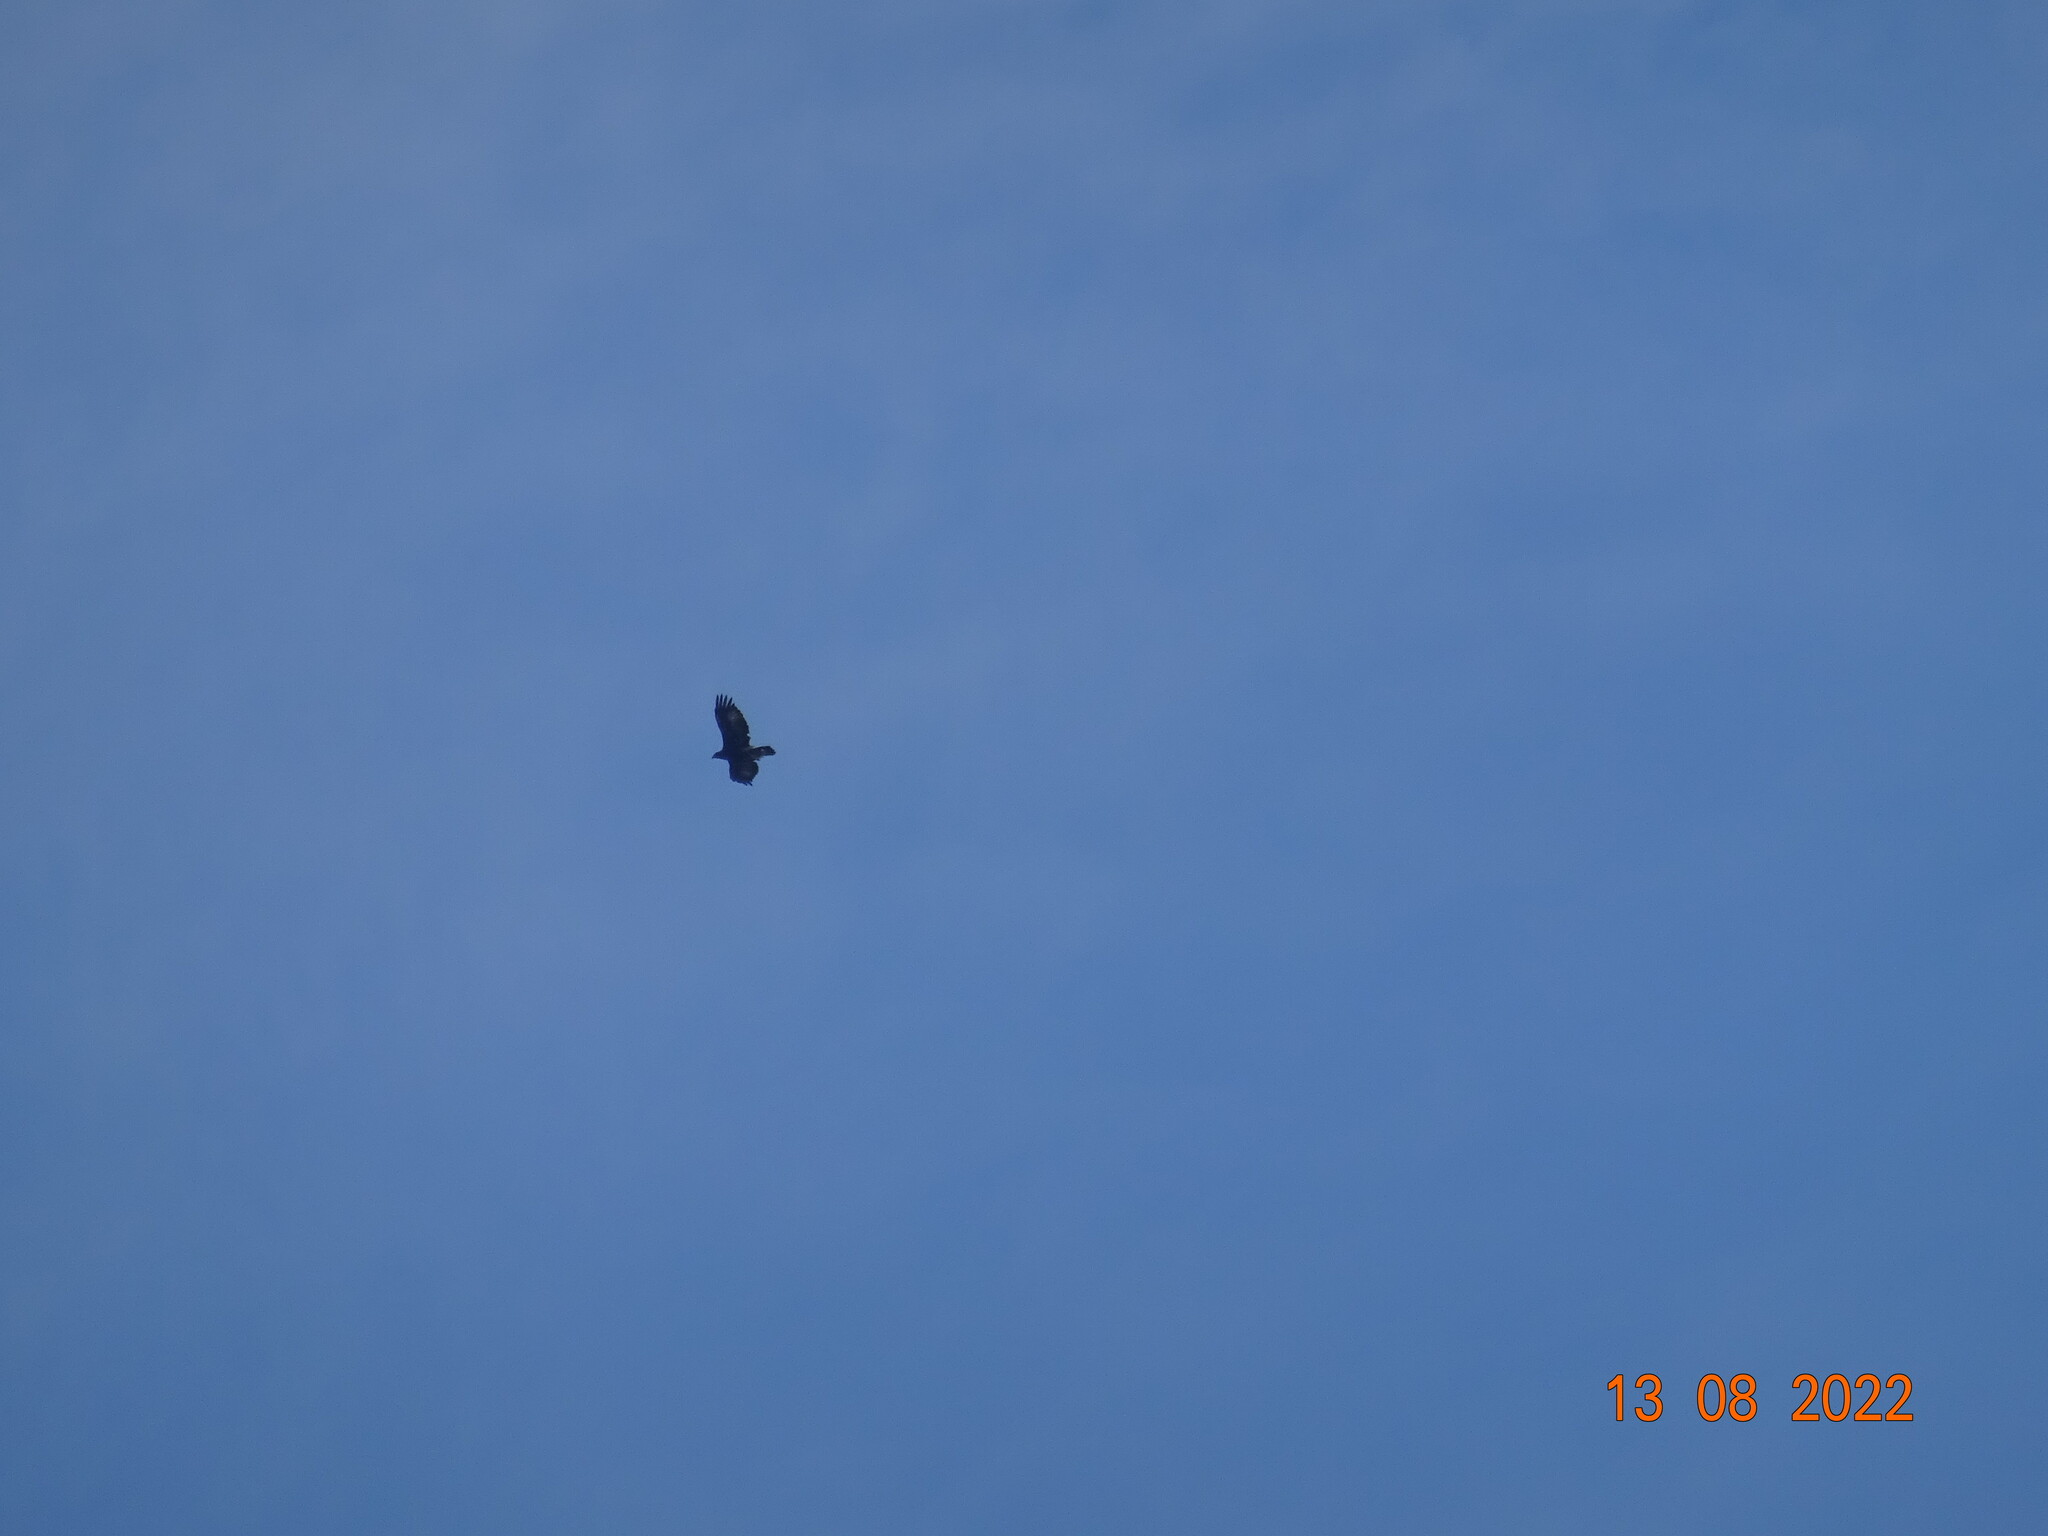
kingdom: Animalia
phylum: Chordata
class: Aves
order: Accipitriformes
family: Accipitridae
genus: Buteo
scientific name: Buteo buteo
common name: Common buzzard
